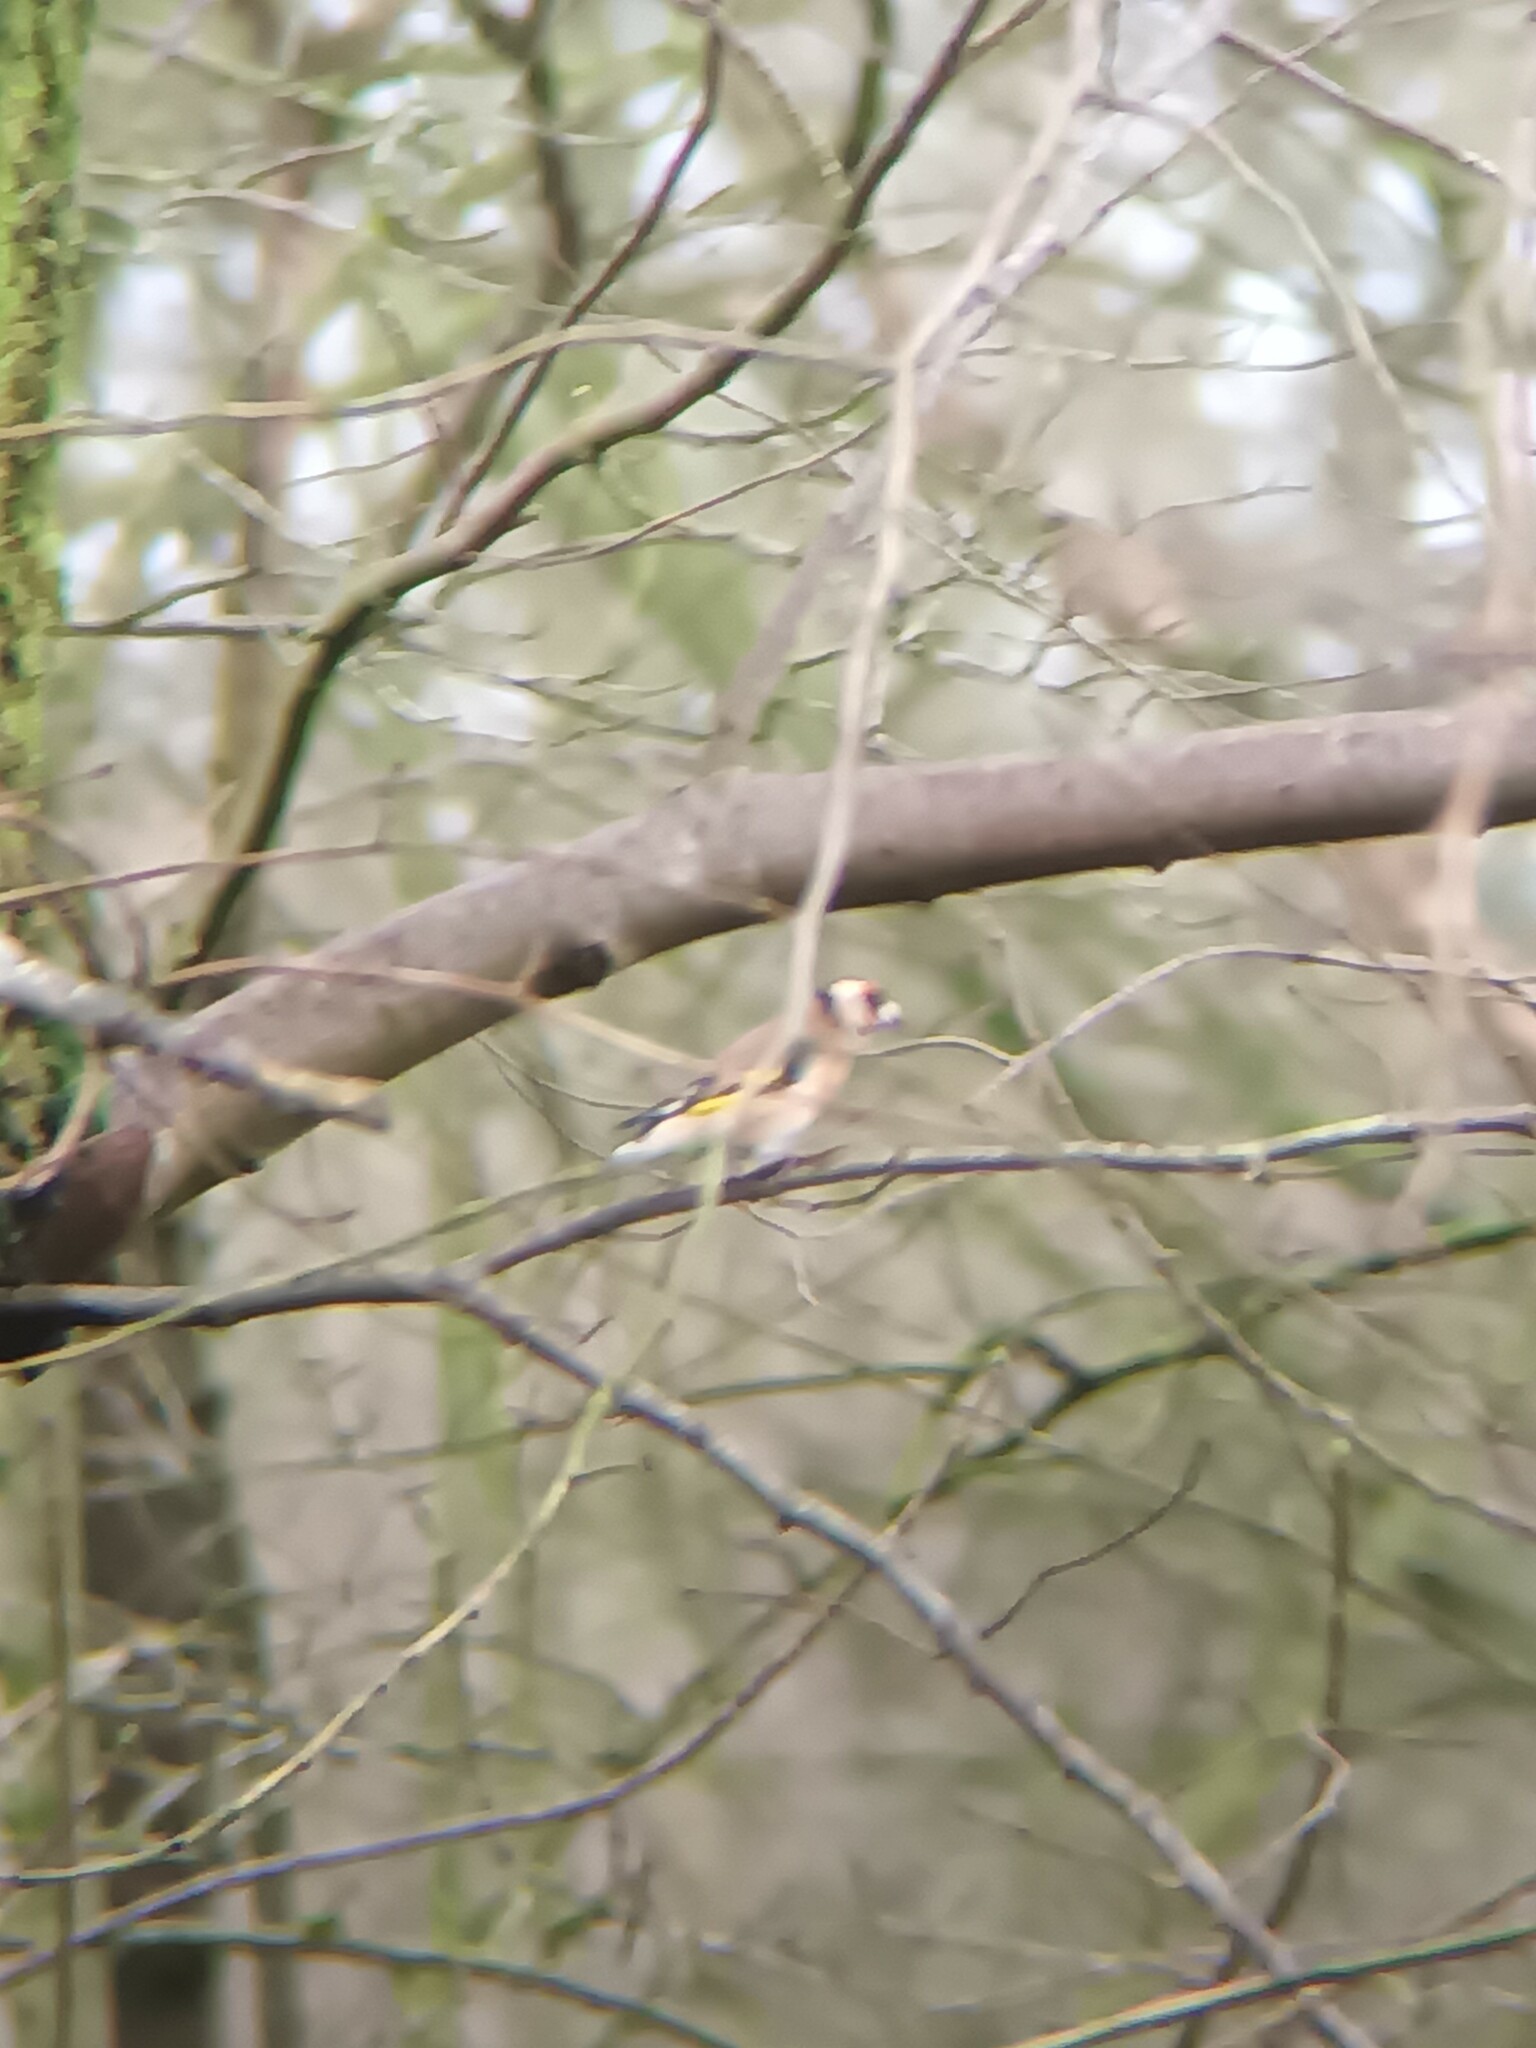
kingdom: Animalia
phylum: Chordata
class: Aves
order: Passeriformes
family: Fringillidae
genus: Carduelis
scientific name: Carduelis carduelis
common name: European goldfinch
